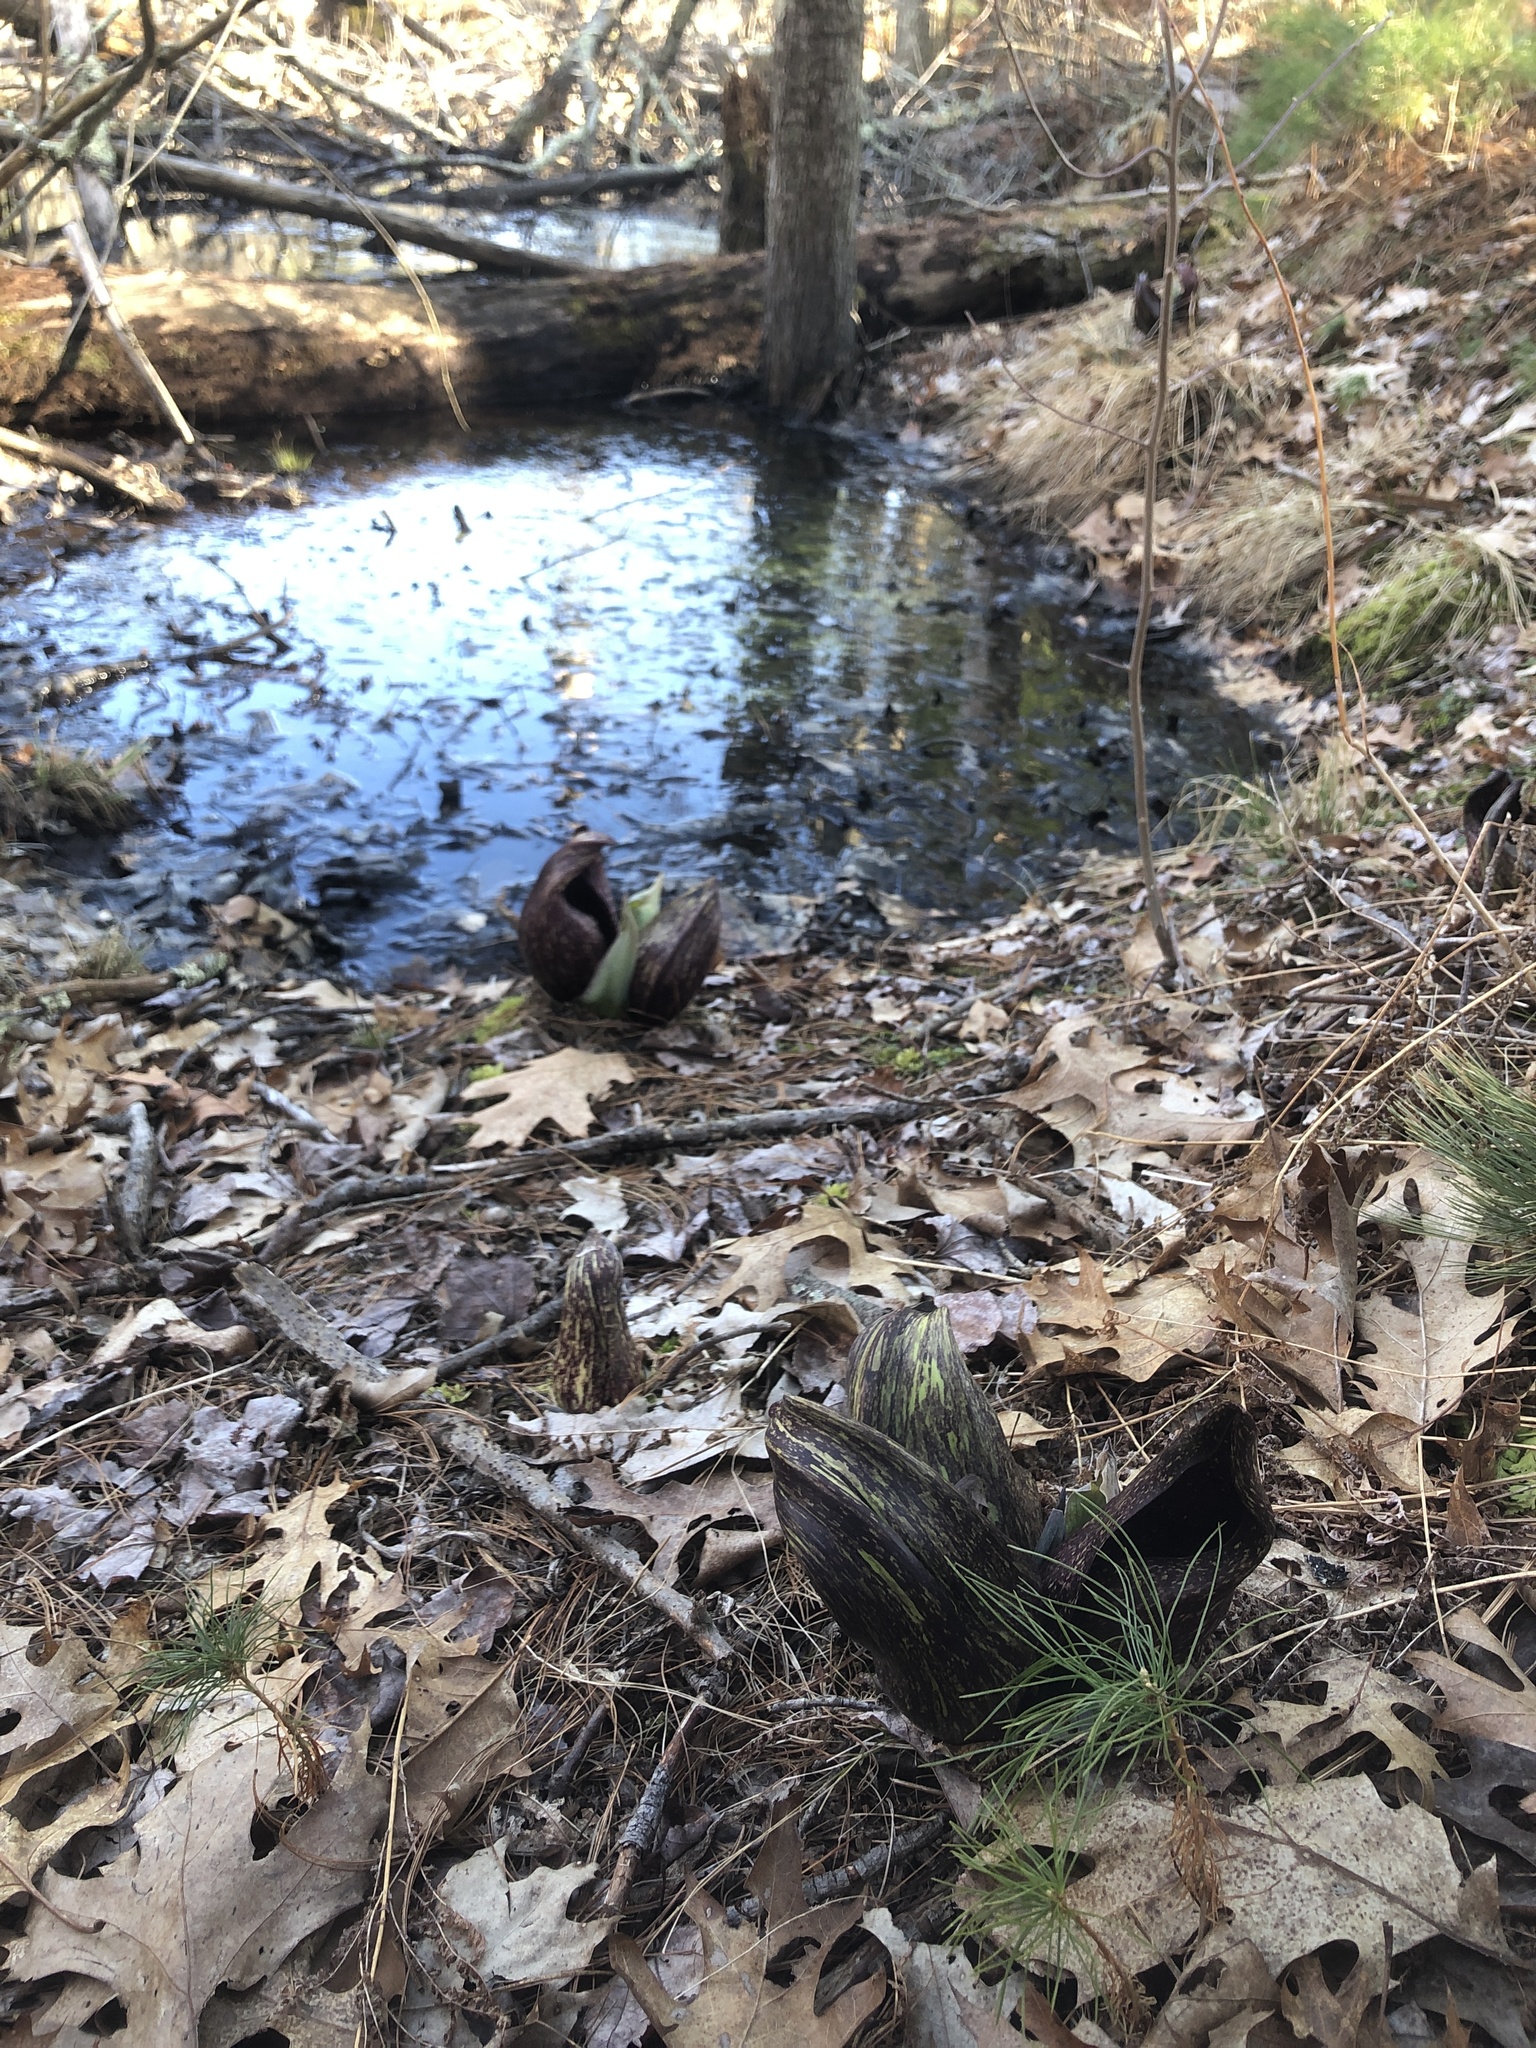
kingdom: Plantae
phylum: Tracheophyta
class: Liliopsida
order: Alismatales
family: Araceae
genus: Symplocarpus
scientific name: Symplocarpus foetidus
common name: Eastern skunk cabbage
